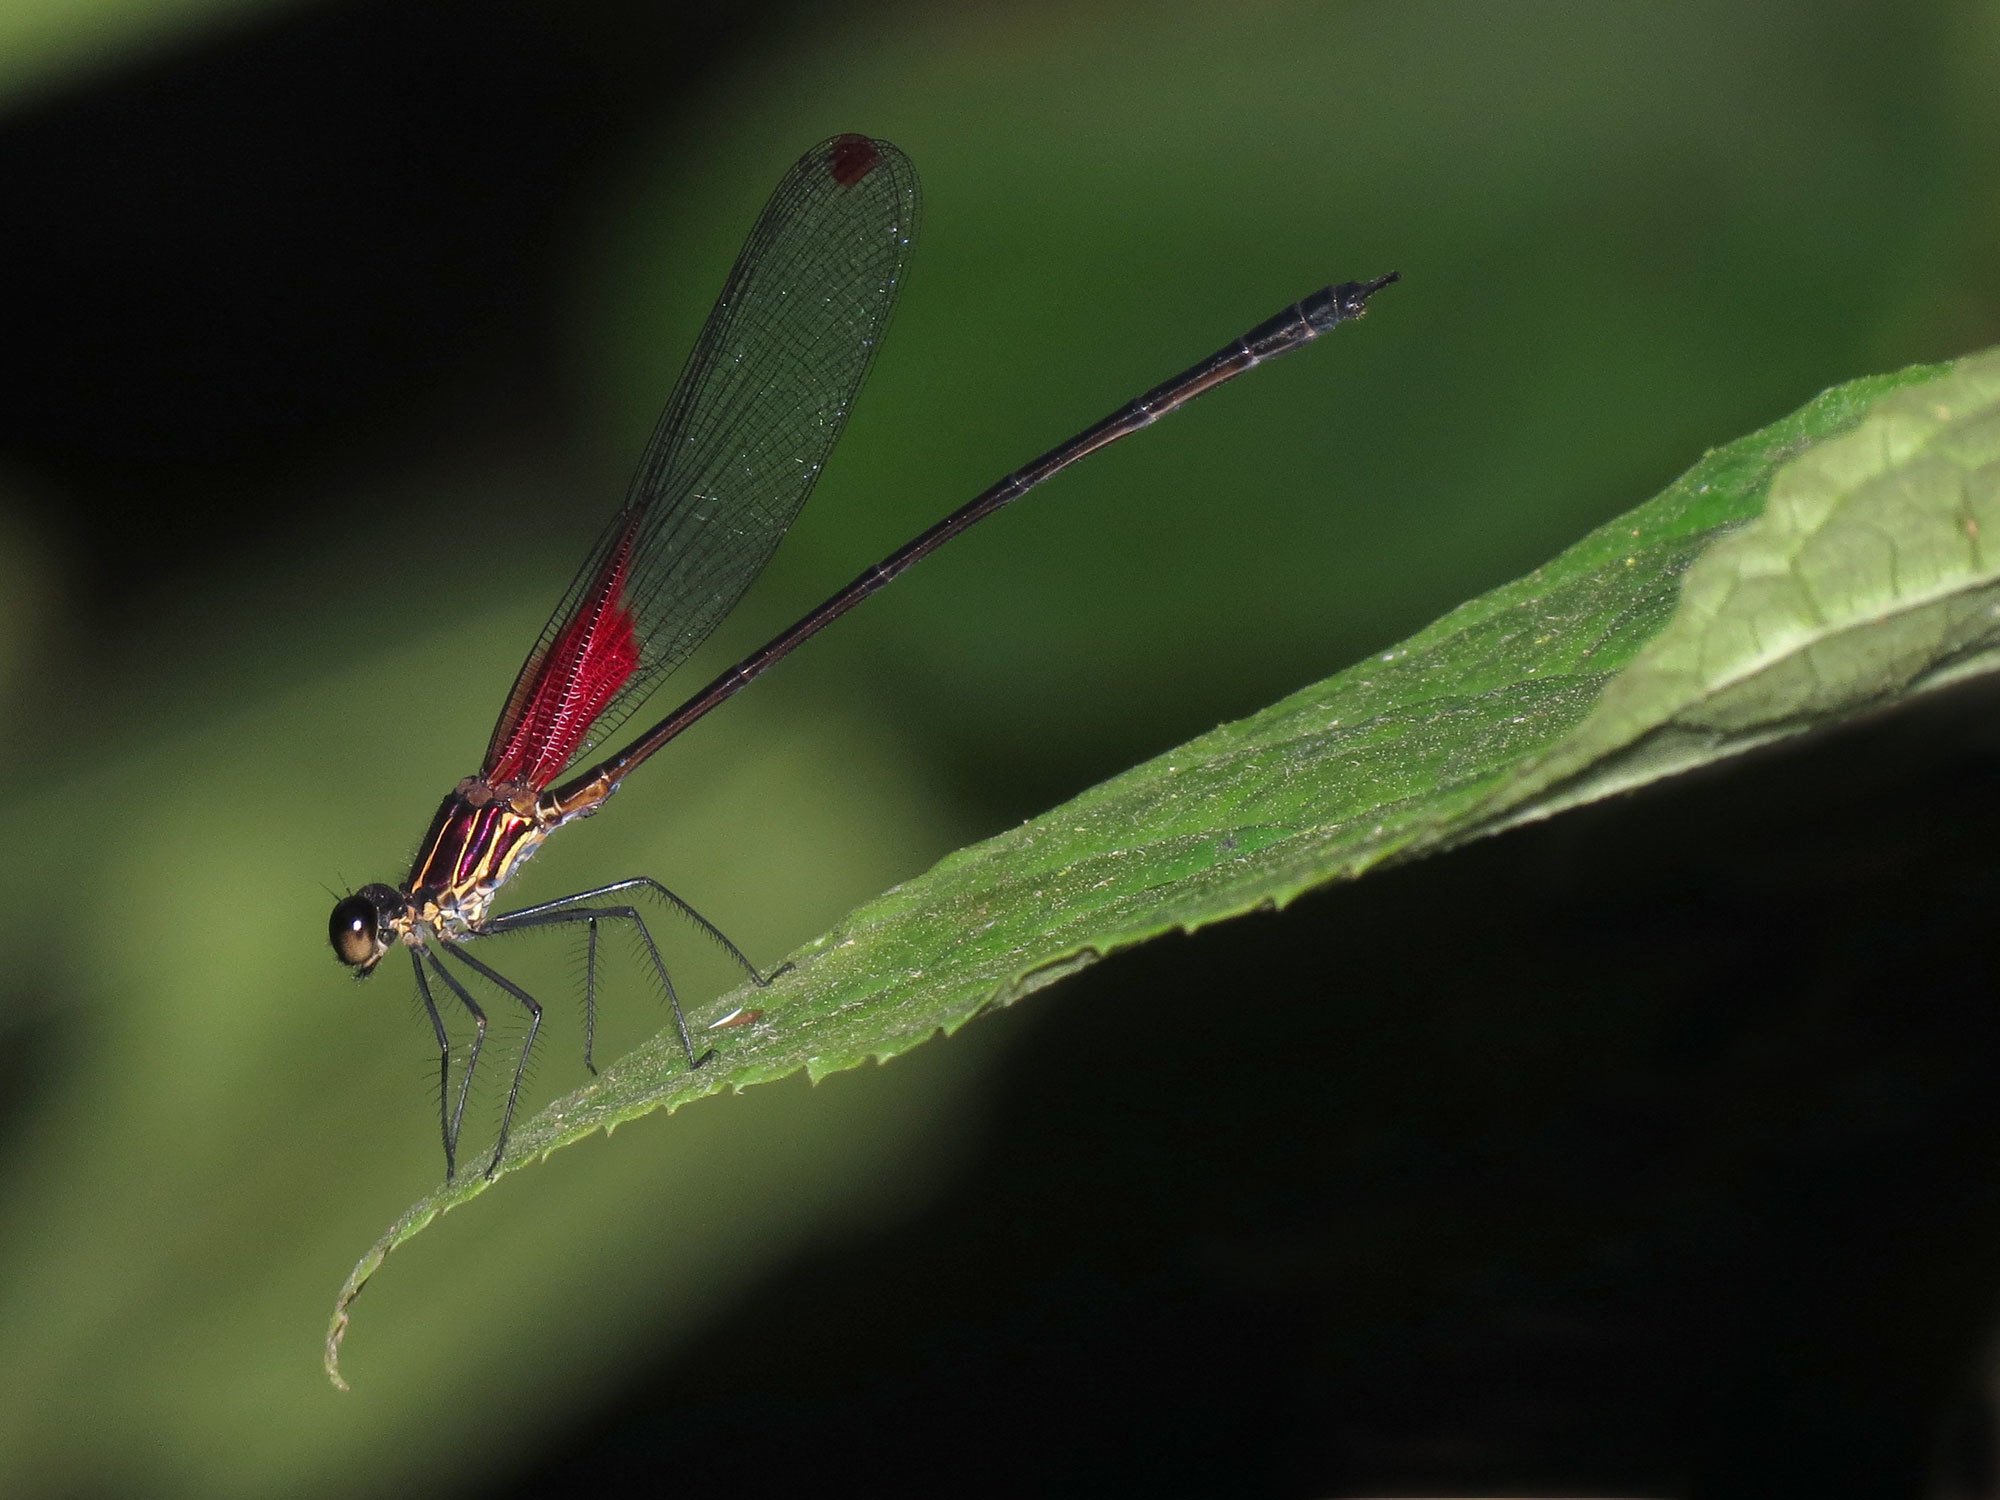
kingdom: Animalia
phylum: Arthropoda
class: Insecta
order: Odonata
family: Calopterygidae
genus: Hetaerina
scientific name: Hetaerina miniata
